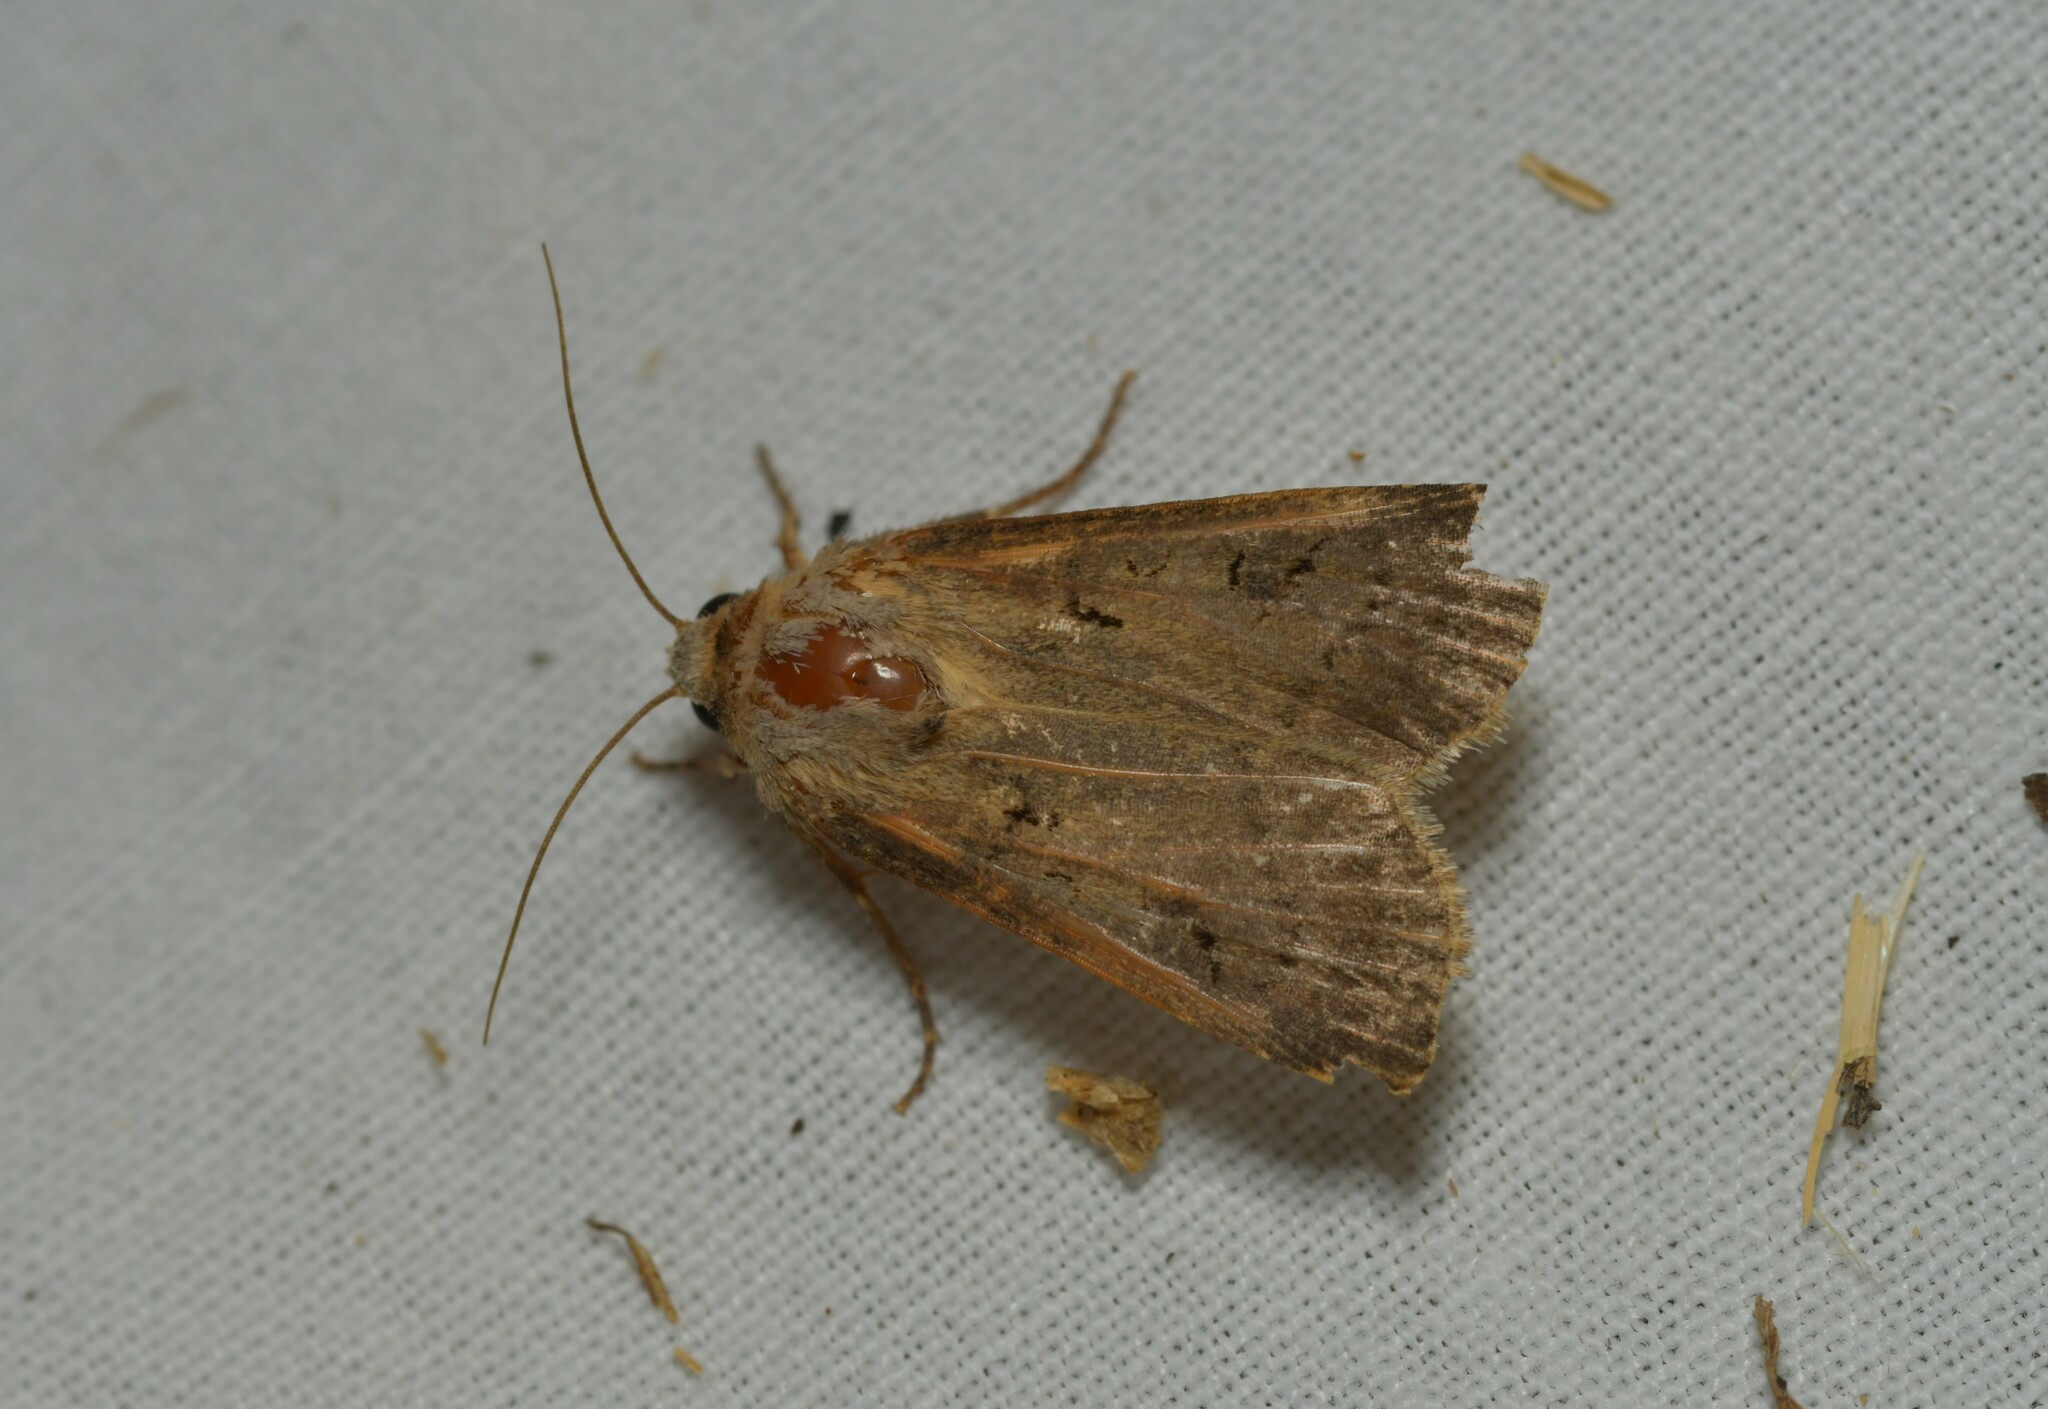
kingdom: Animalia
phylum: Arthropoda
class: Insecta
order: Lepidoptera
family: Noctuidae
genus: Agrotis
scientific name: Agrotis exclamationis
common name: Heart and dart
